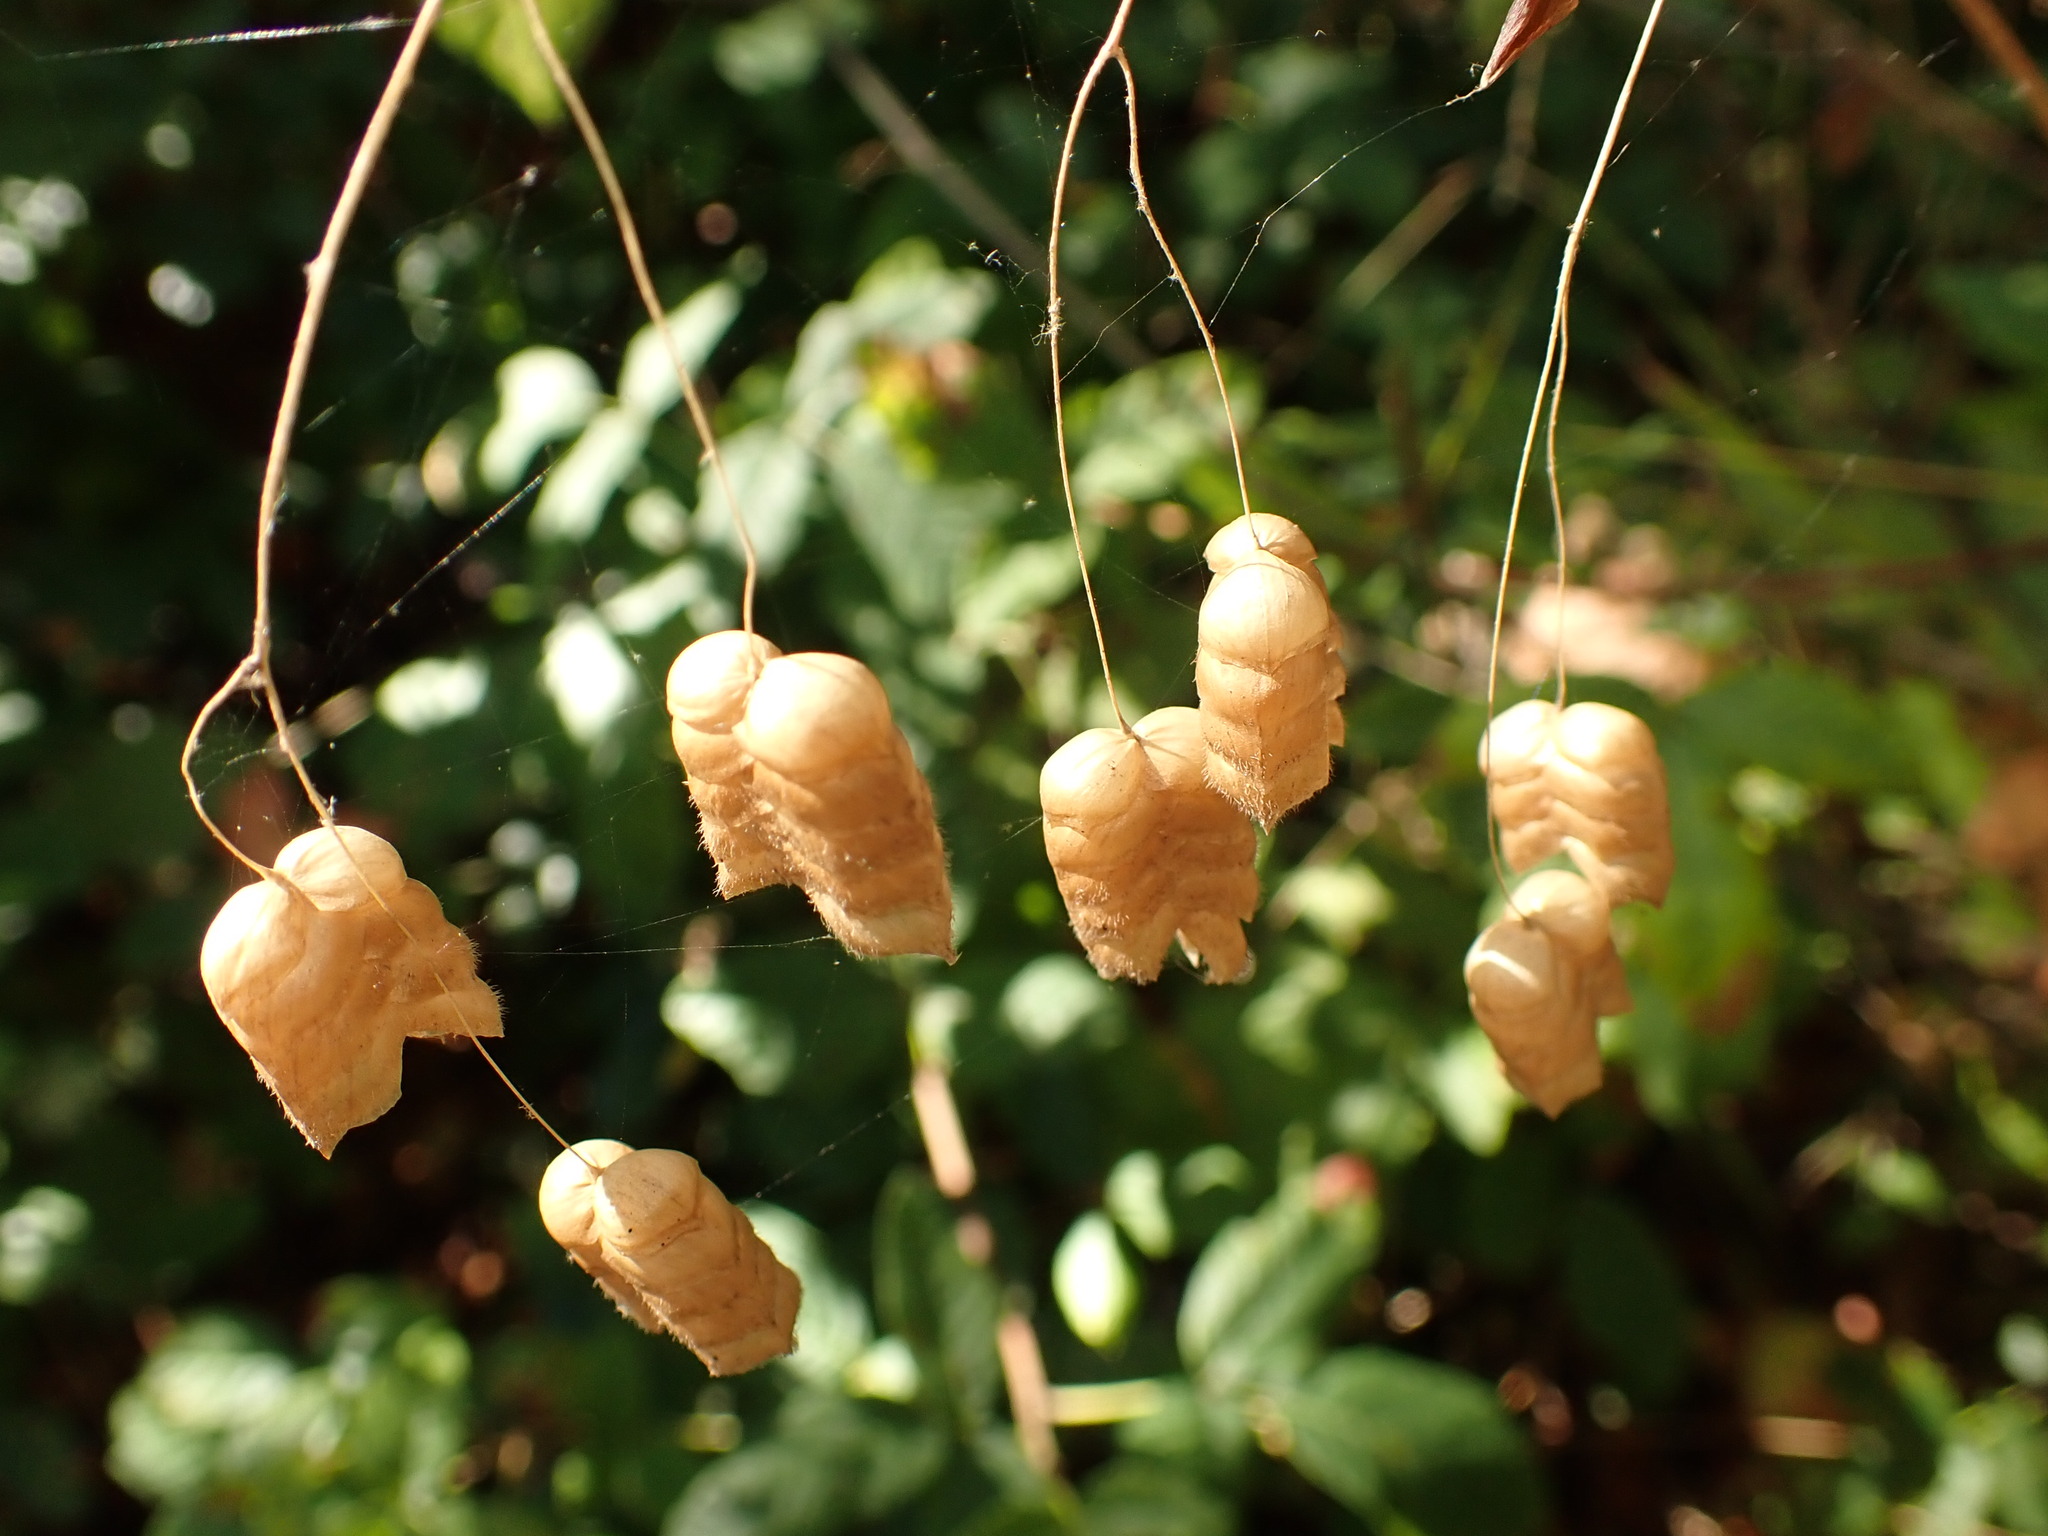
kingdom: Plantae
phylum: Tracheophyta
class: Liliopsida
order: Poales
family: Poaceae
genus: Briza
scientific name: Briza maxima
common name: Big quakinggrass
